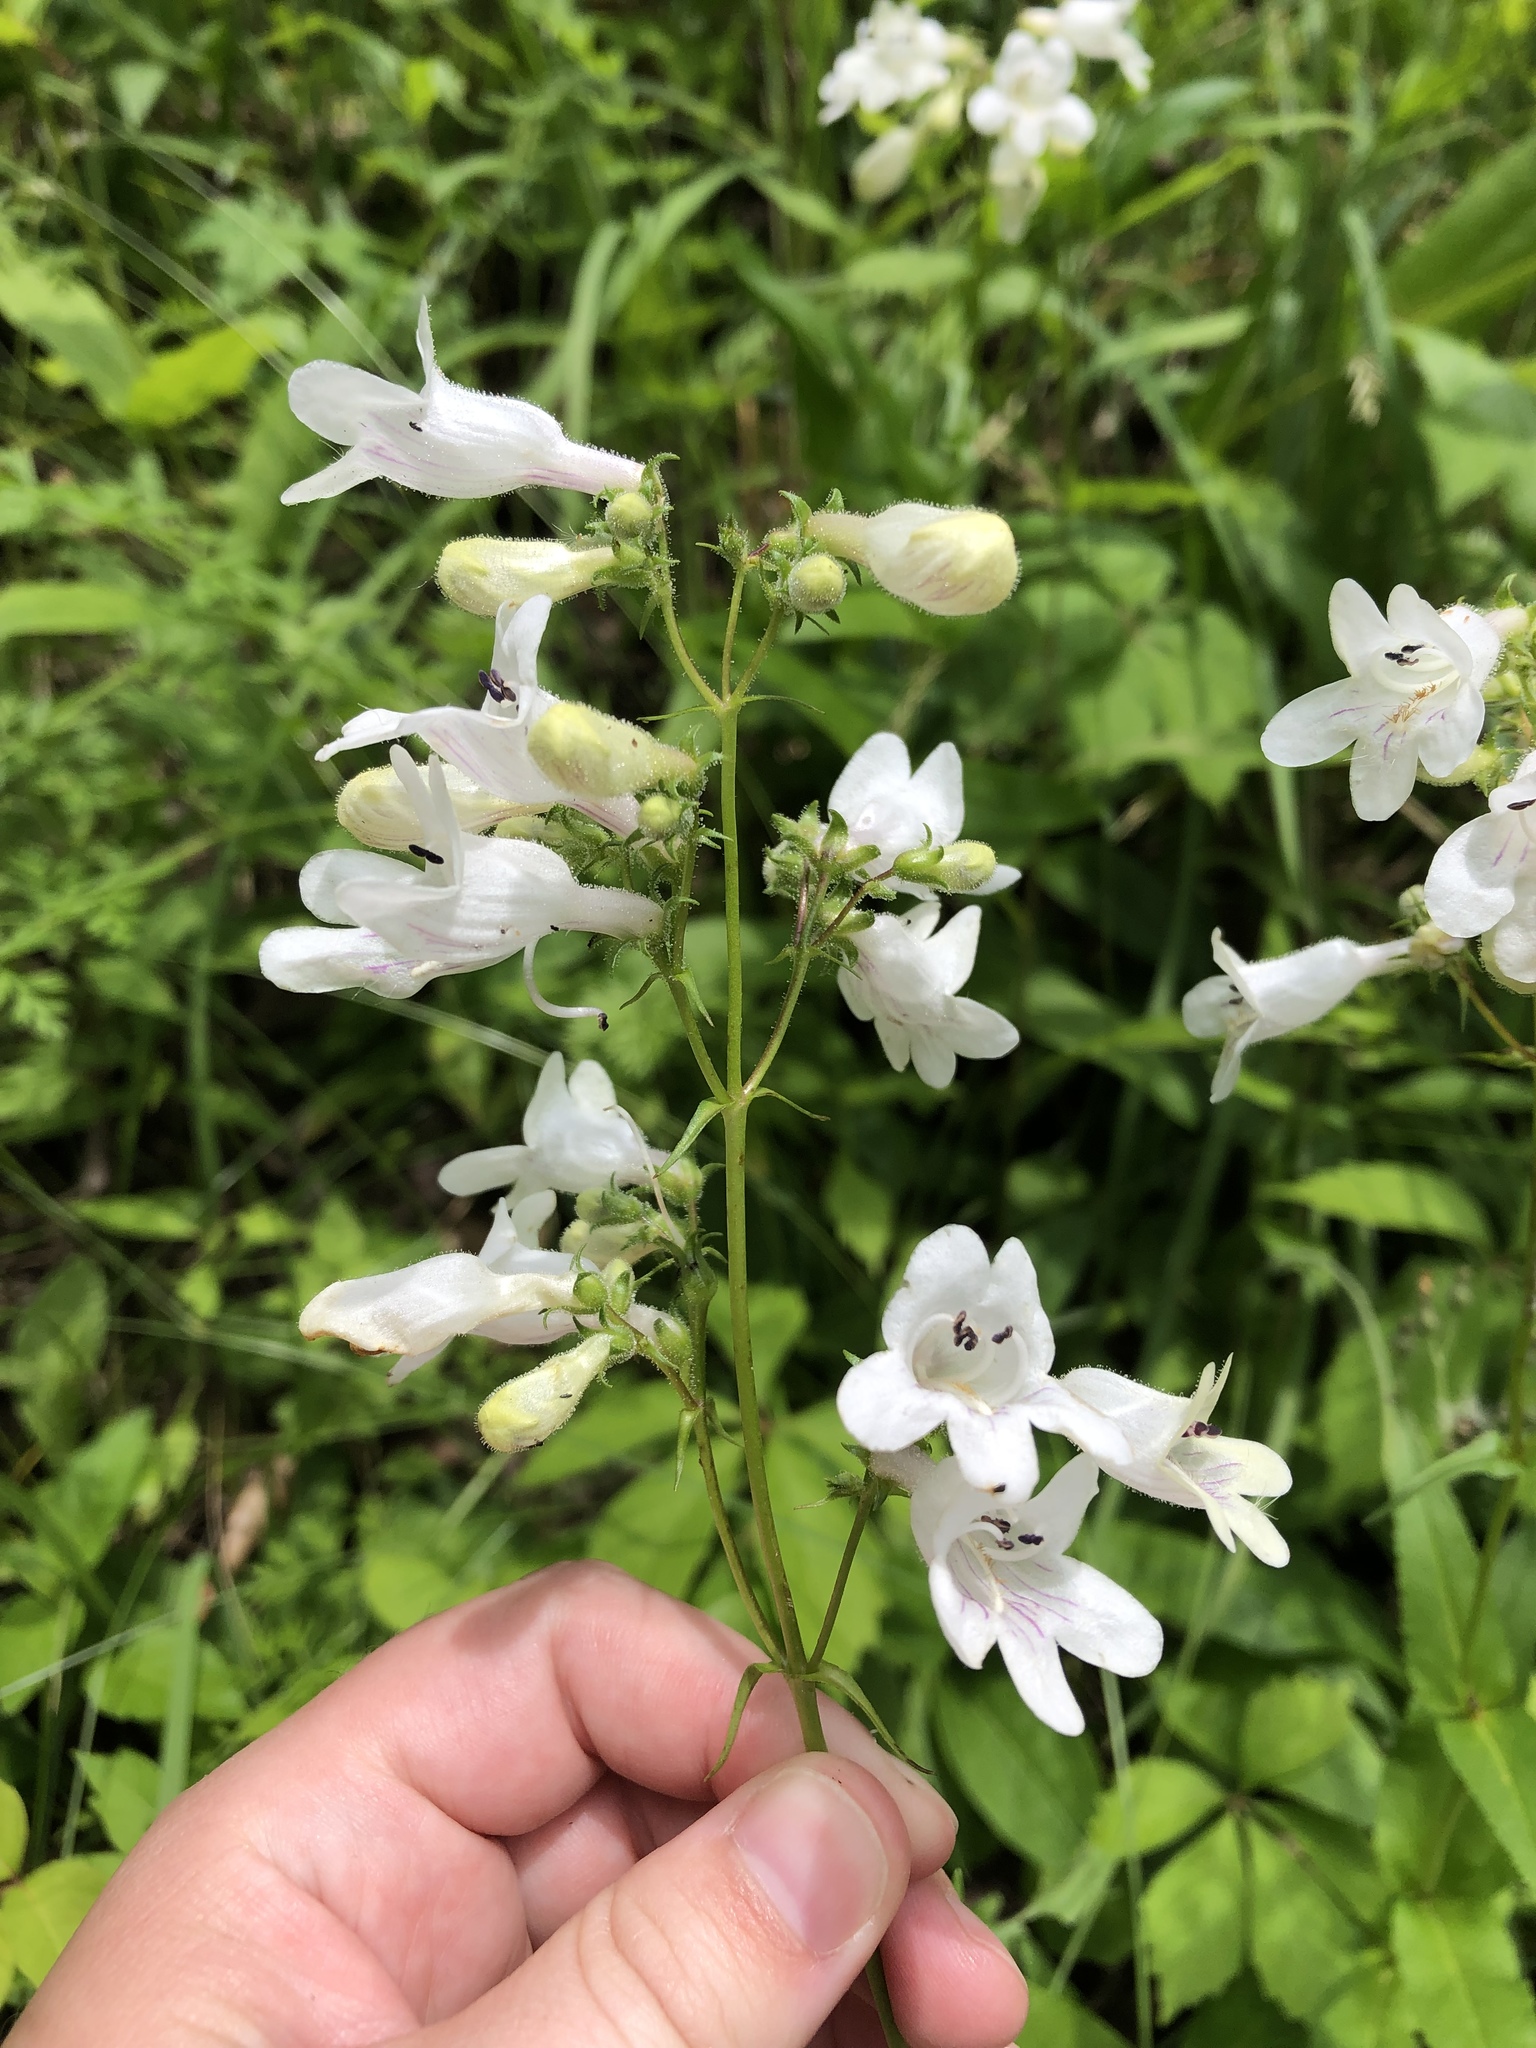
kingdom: Plantae
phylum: Tracheophyta
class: Magnoliopsida
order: Lamiales
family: Plantaginaceae
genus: Penstemon
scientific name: Penstemon digitalis
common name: Foxglove beardtongue
